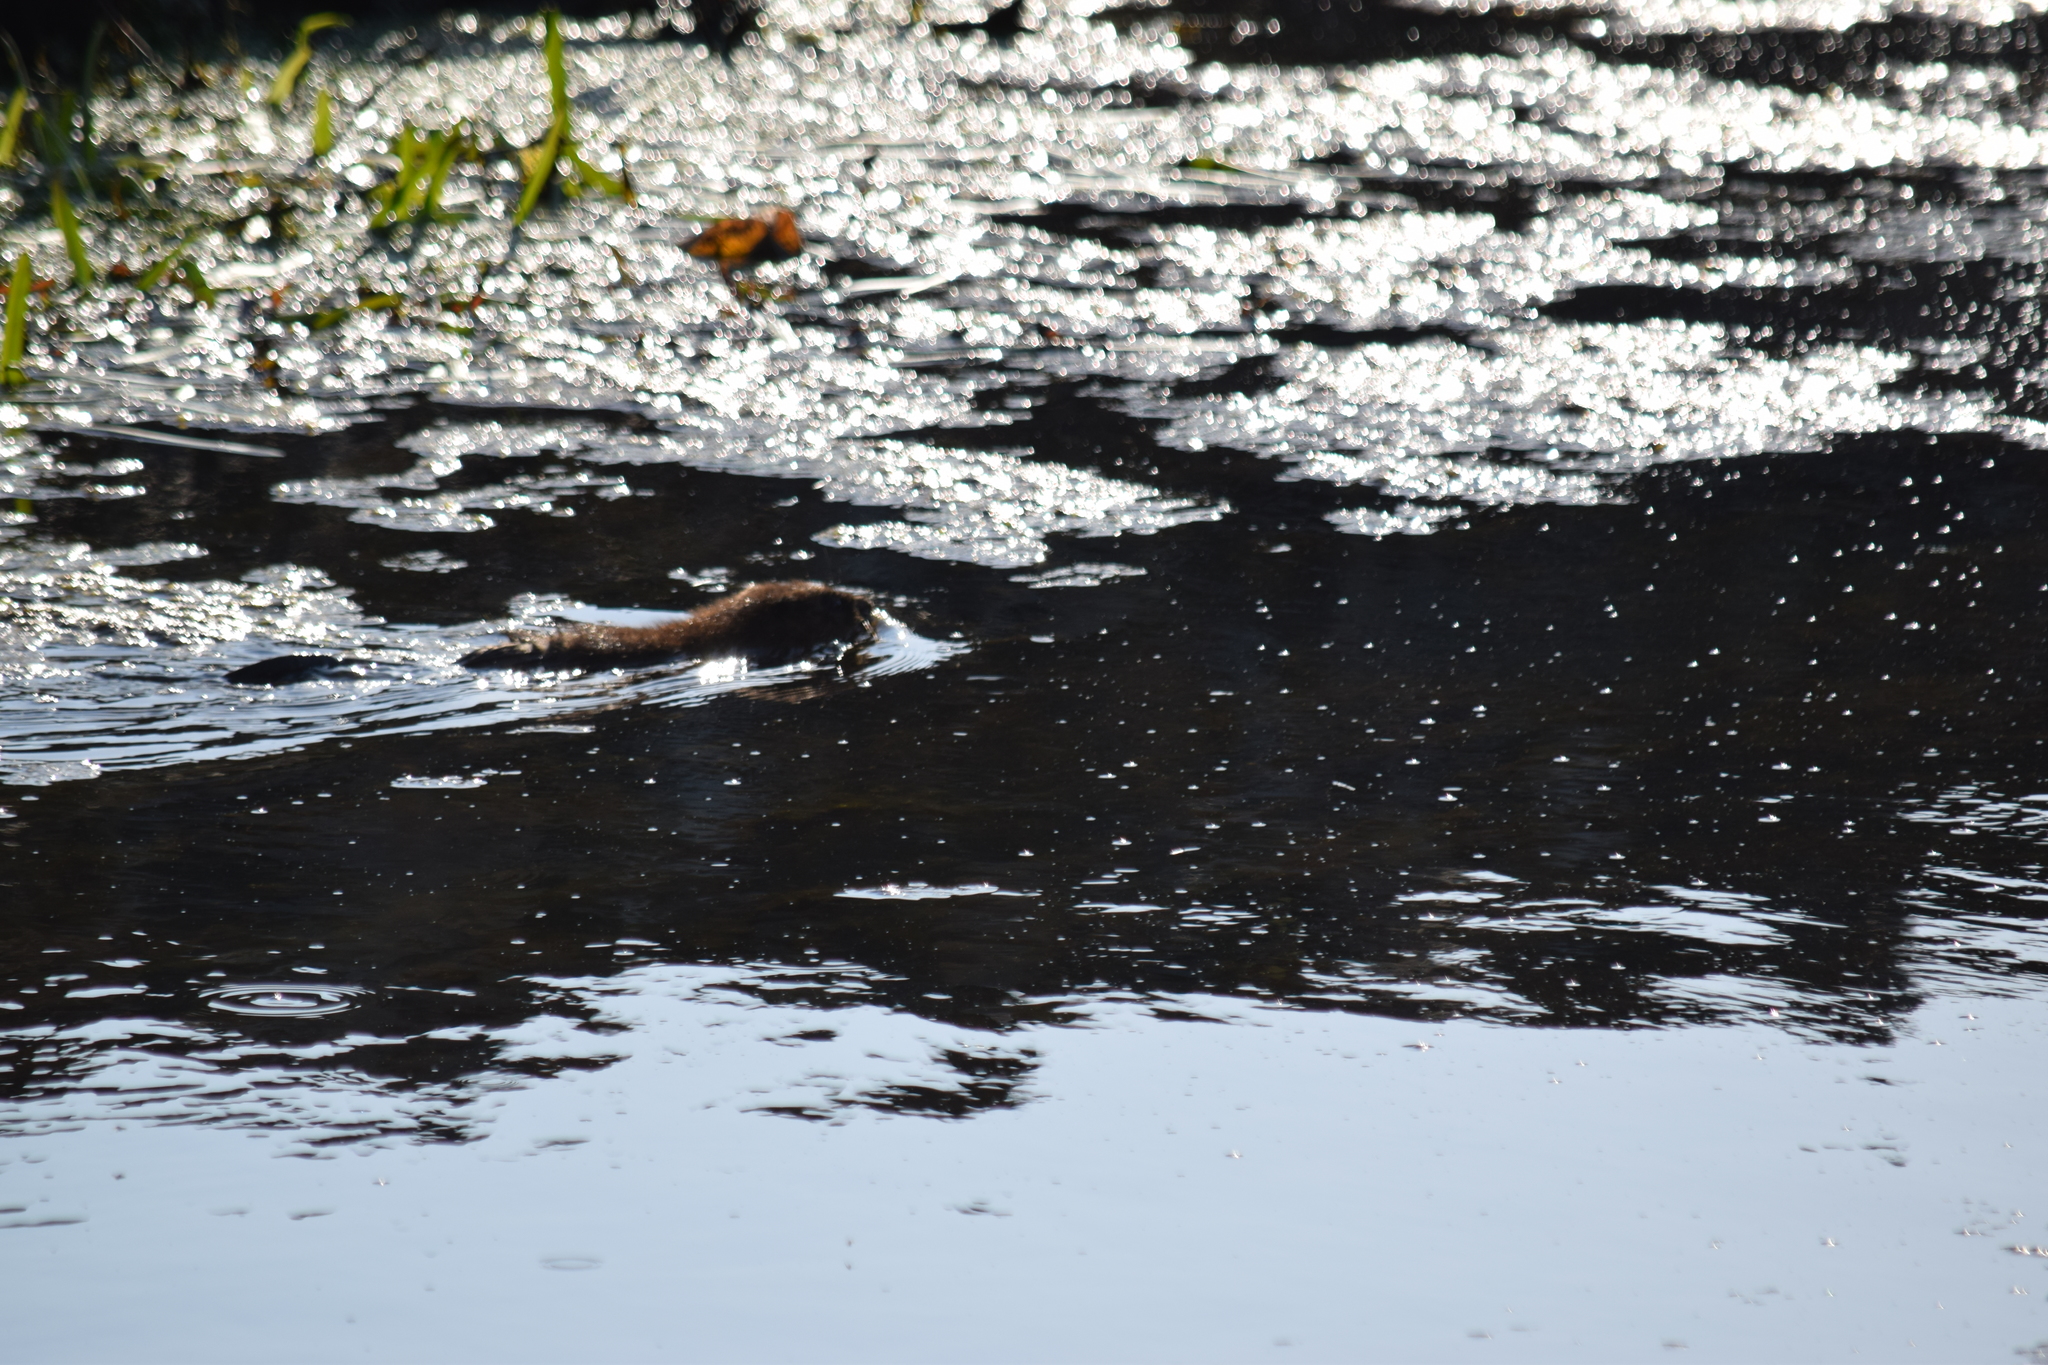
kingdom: Animalia
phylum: Chordata
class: Mammalia
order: Rodentia
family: Cricetidae
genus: Ondatra
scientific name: Ondatra zibethicus
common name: Muskrat
